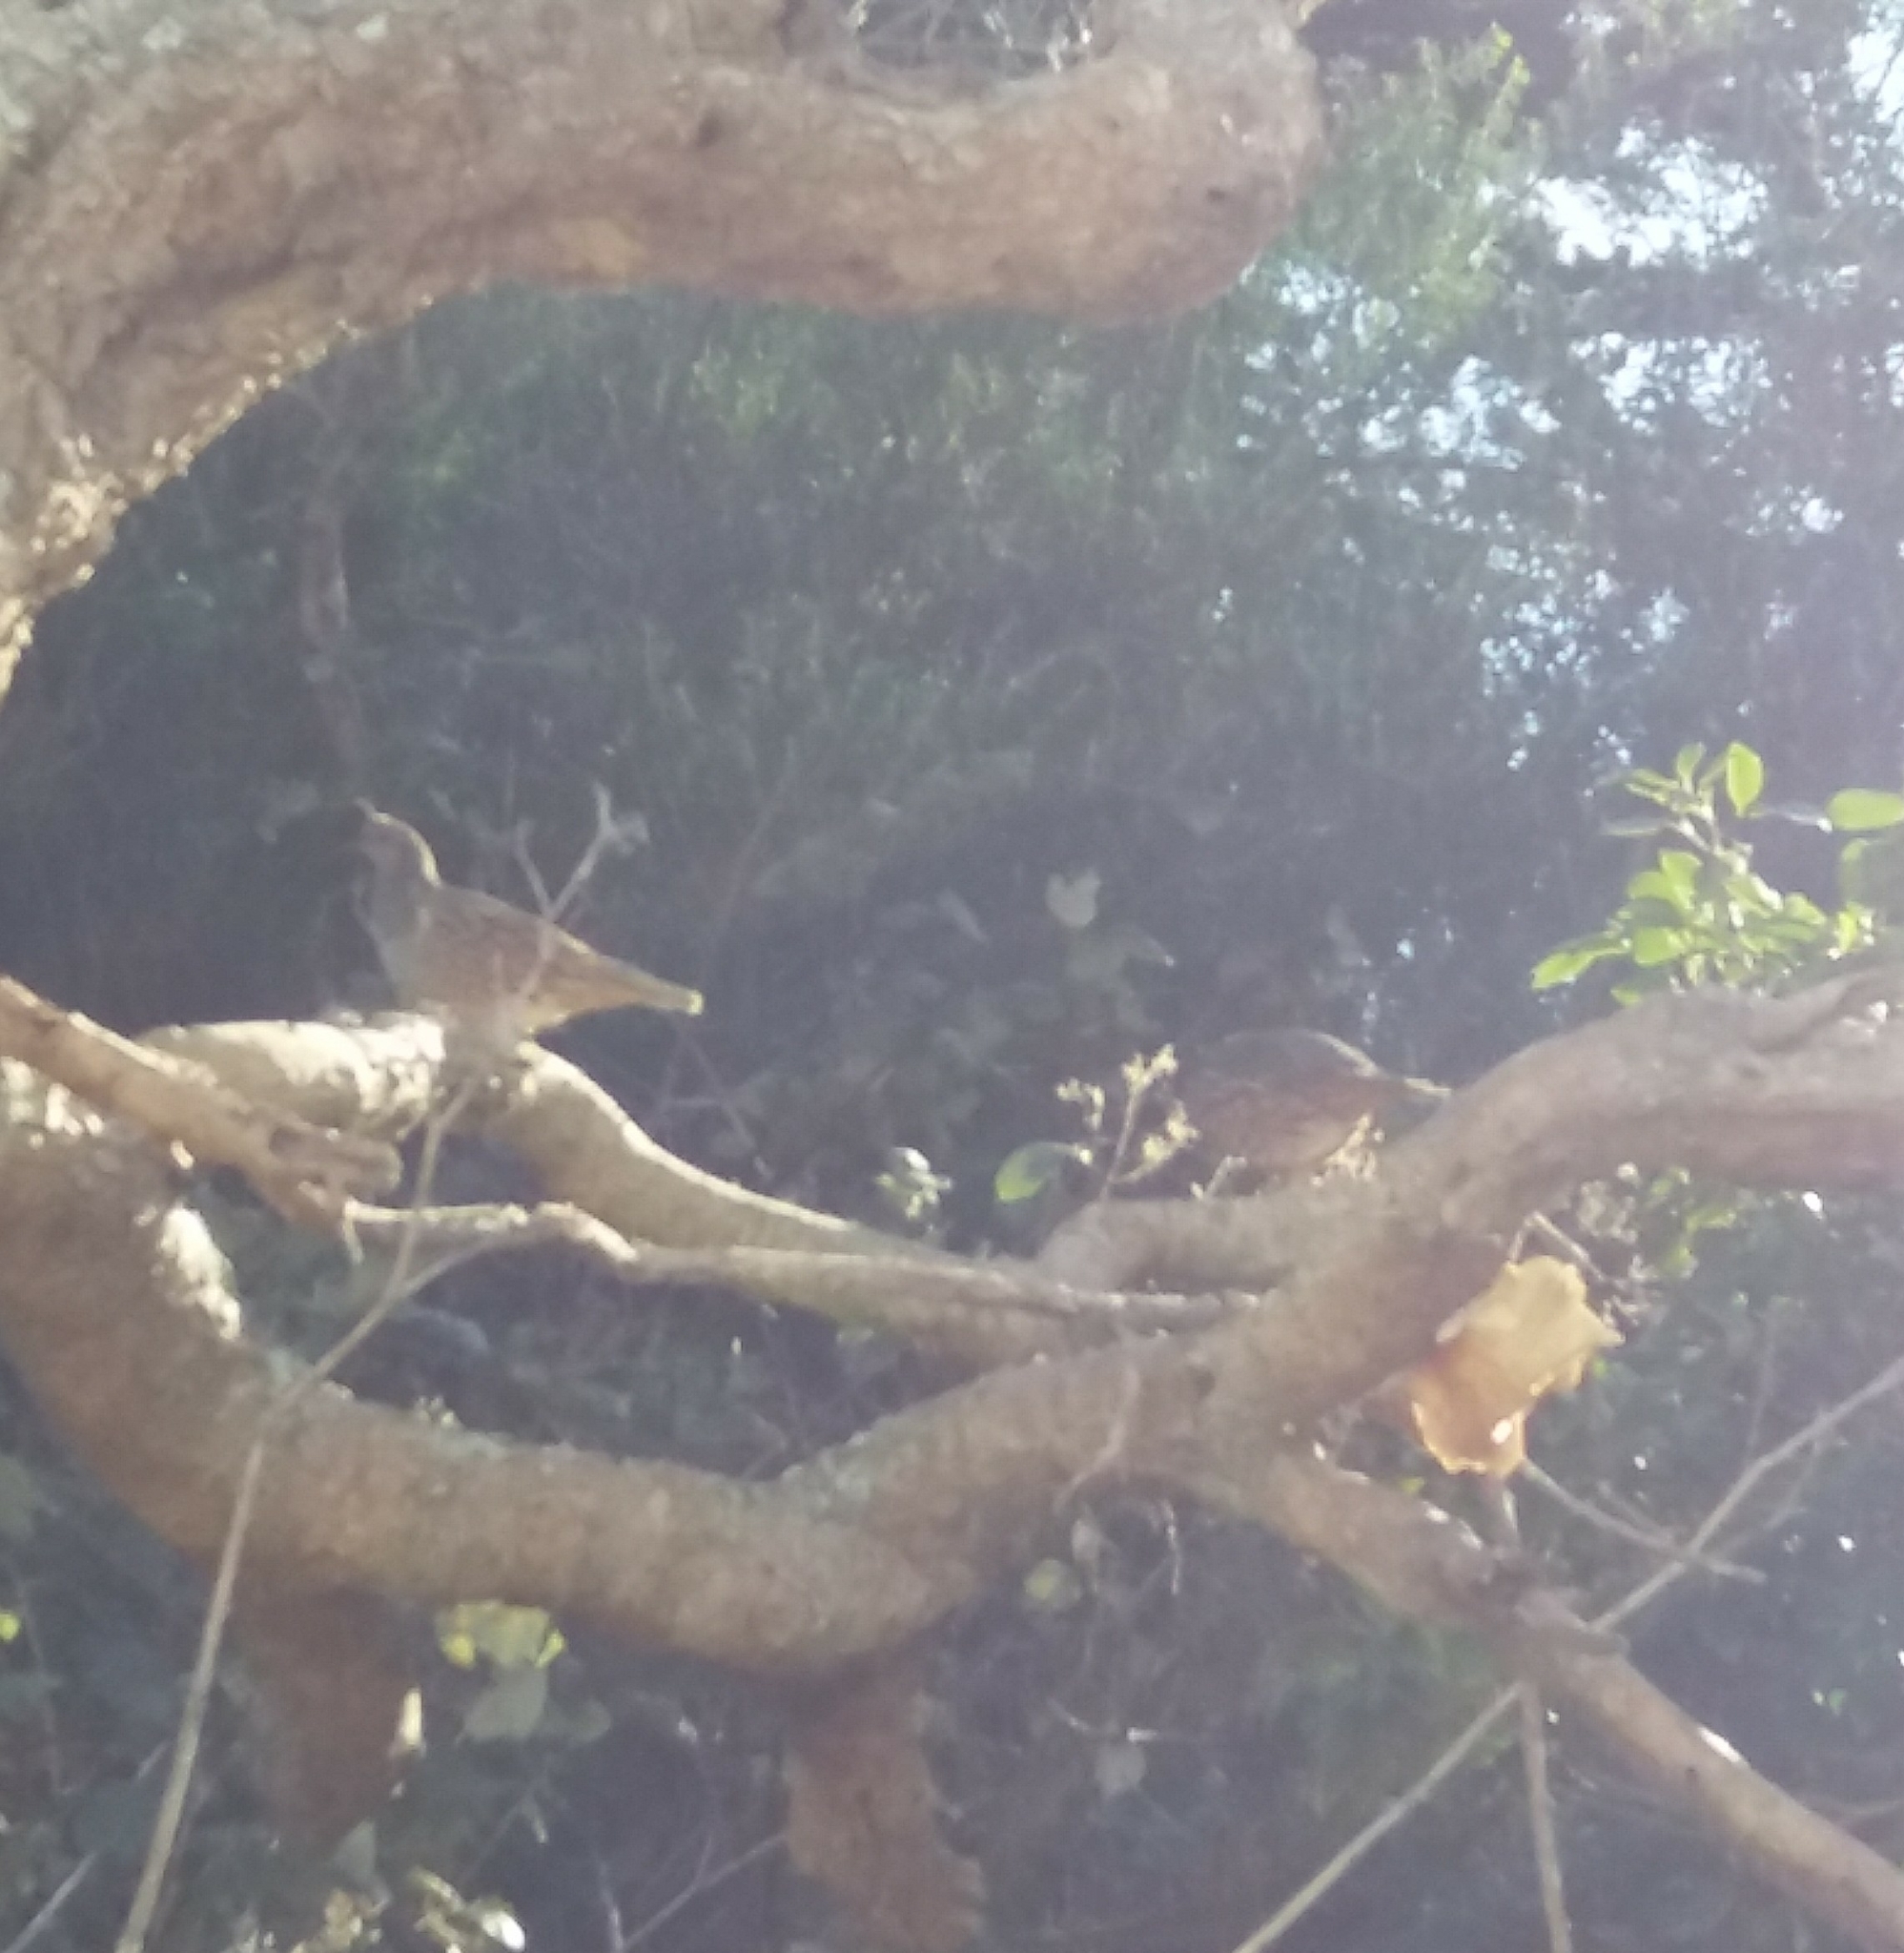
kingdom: Animalia
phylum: Chordata
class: Aves
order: Galliformes
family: Odontophoridae
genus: Callipepla
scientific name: Callipepla californica
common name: California quail
